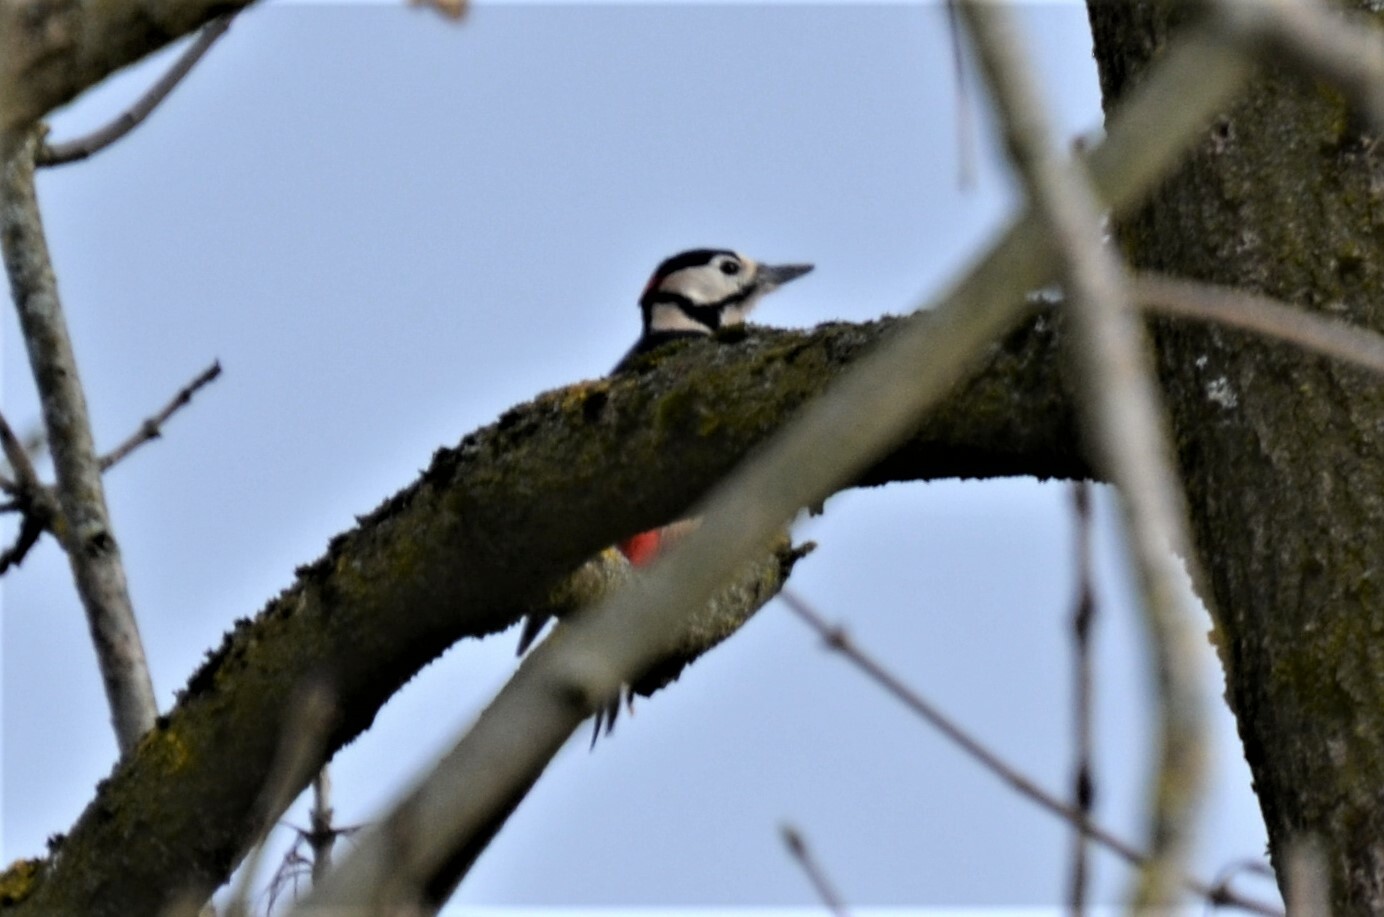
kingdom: Animalia
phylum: Chordata
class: Aves
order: Piciformes
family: Picidae
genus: Dendrocopos
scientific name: Dendrocopos major
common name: Great spotted woodpecker
